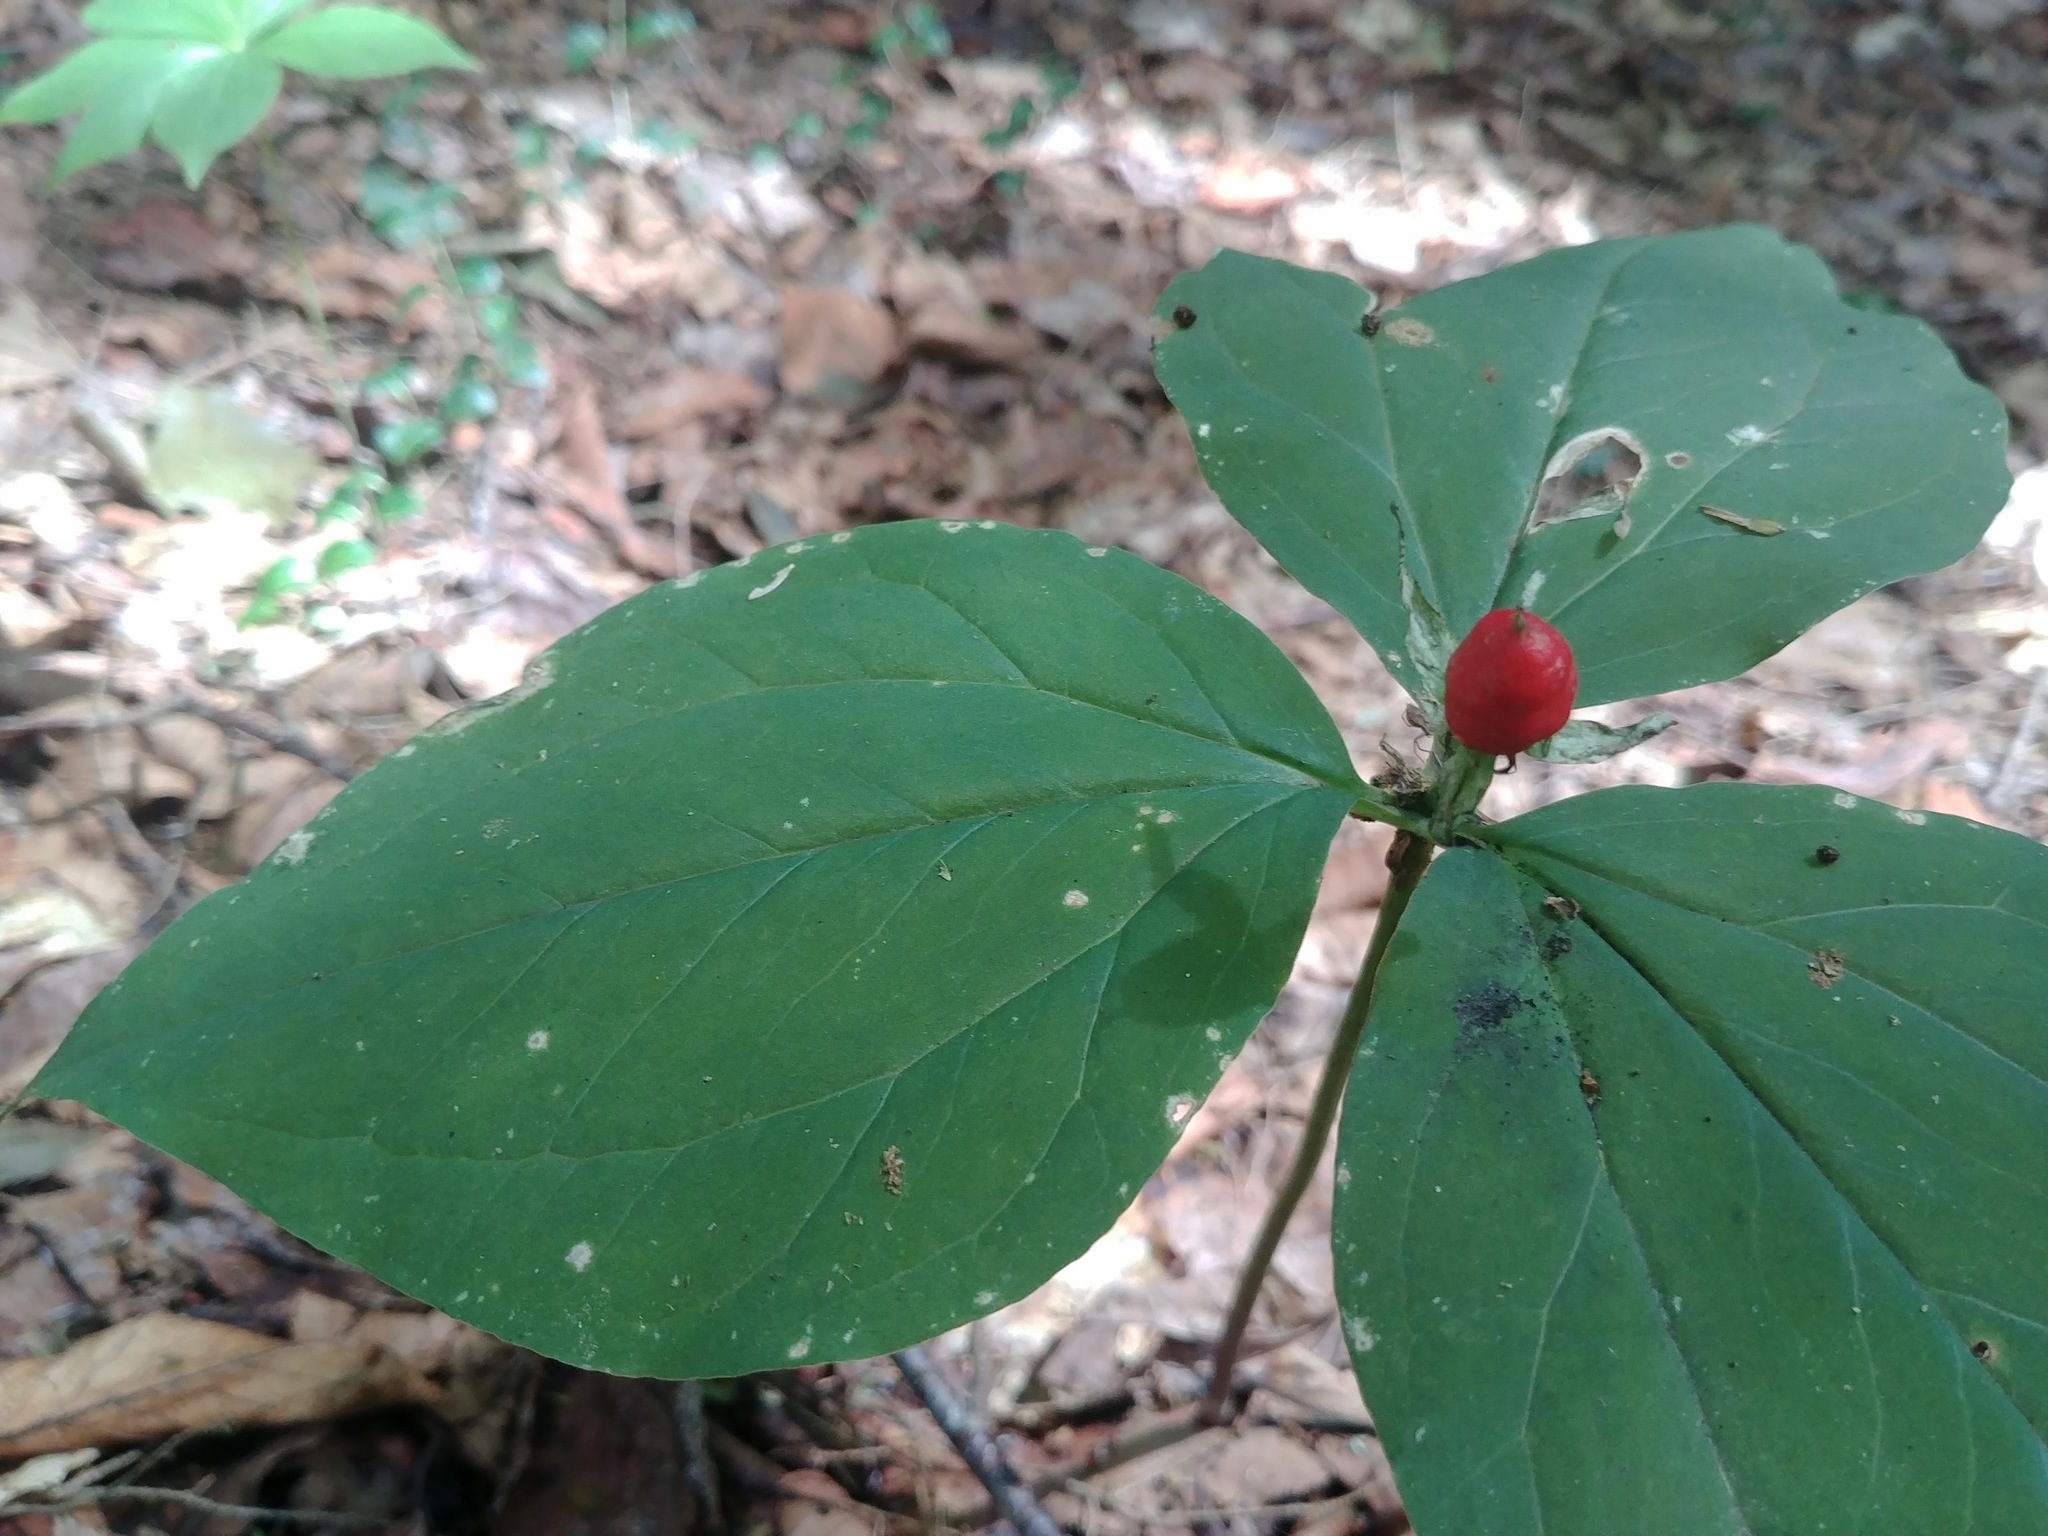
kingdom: Plantae
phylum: Tracheophyta
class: Liliopsida
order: Liliales
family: Melanthiaceae
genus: Trillium
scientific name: Trillium undulatum
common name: Paint trillium
